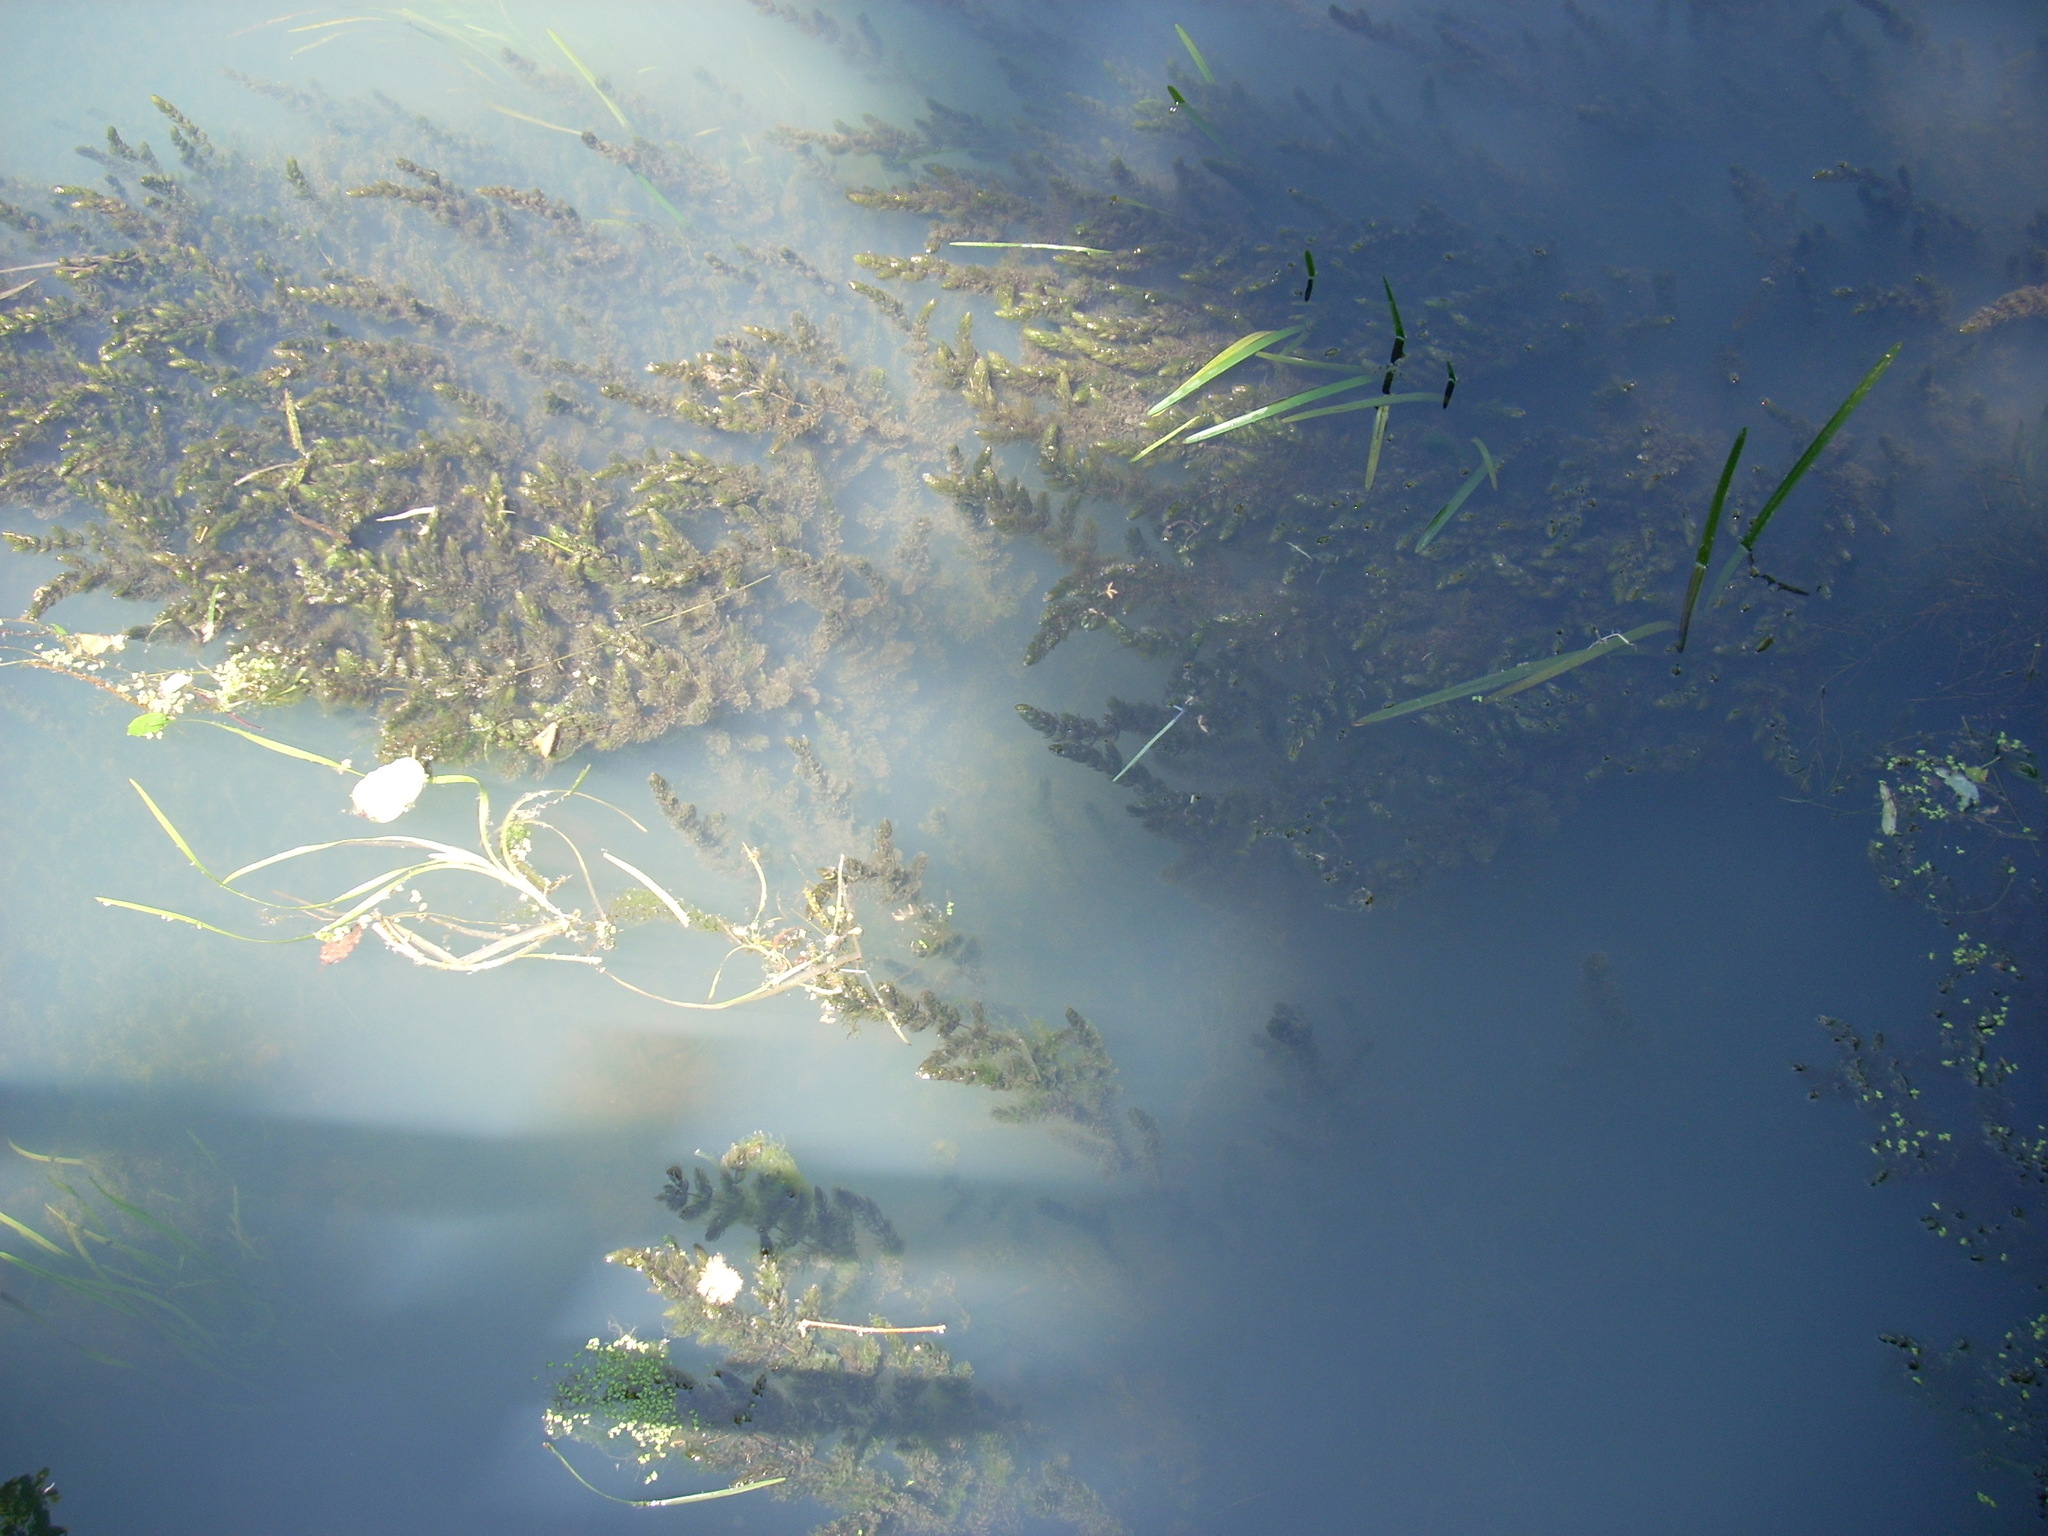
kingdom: Plantae
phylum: Tracheophyta
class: Magnoliopsida
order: Ceratophyllales
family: Ceratophyllaceae
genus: Ceratophyllum
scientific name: Ceratophyllum demersum
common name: Rigid hornwort
